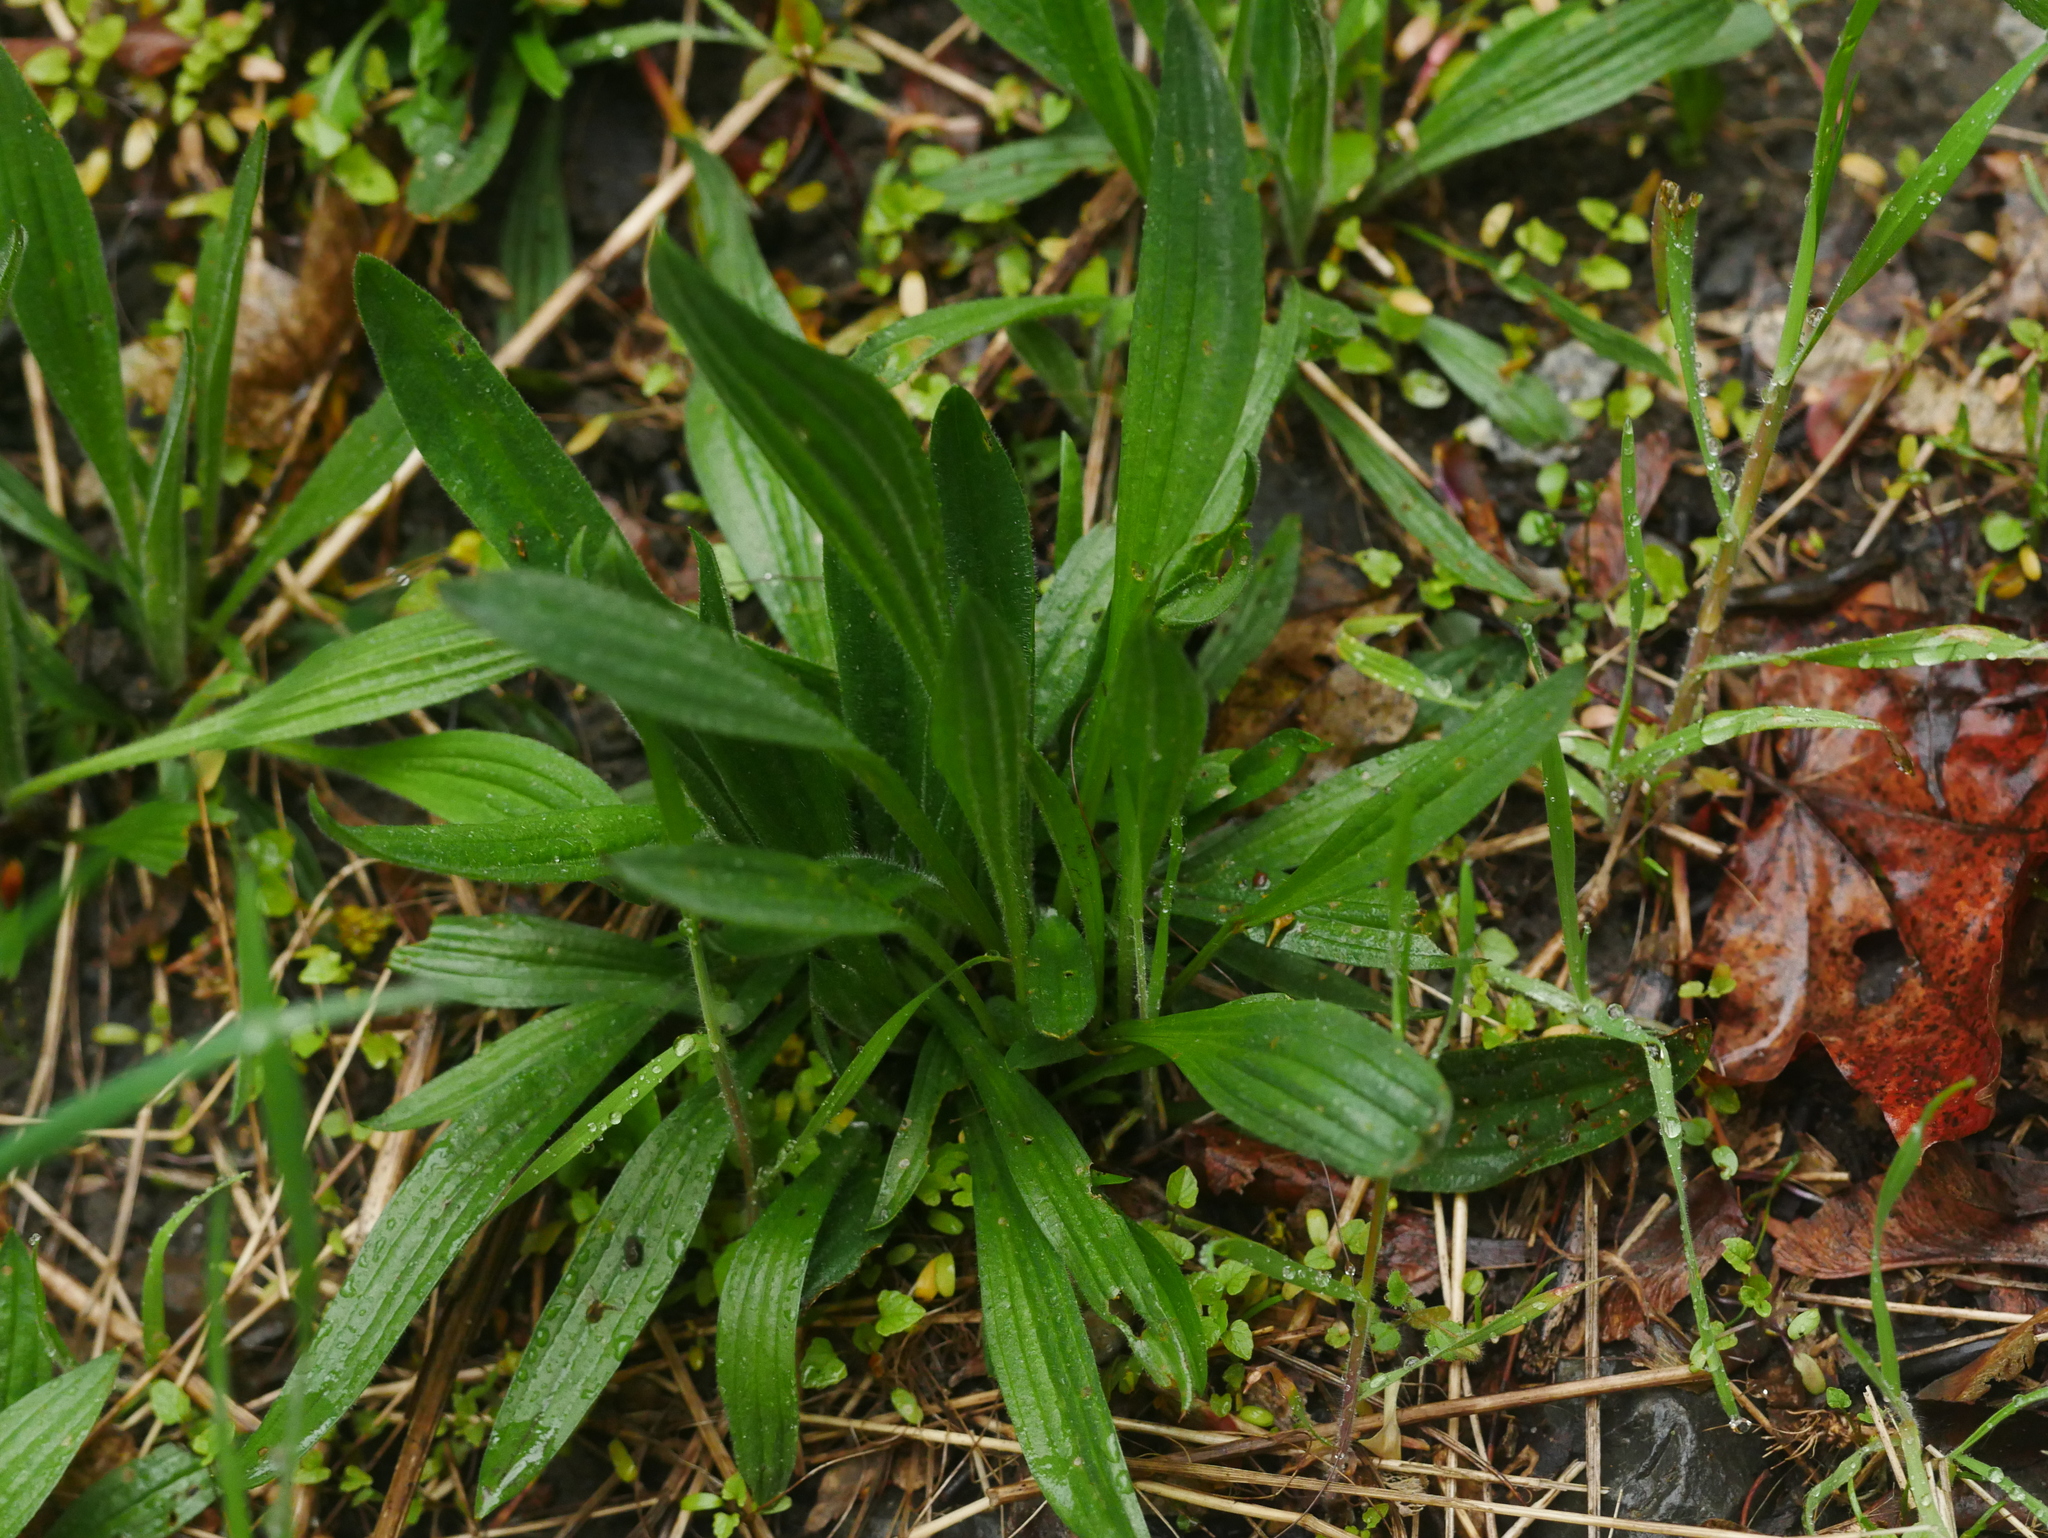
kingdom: Plantae
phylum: Tracheophyta
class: Magnoliopsida
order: Lamiales
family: Plantaginaceae
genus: Plantago
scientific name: Plantago lanceolata
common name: Ribwort plantain
